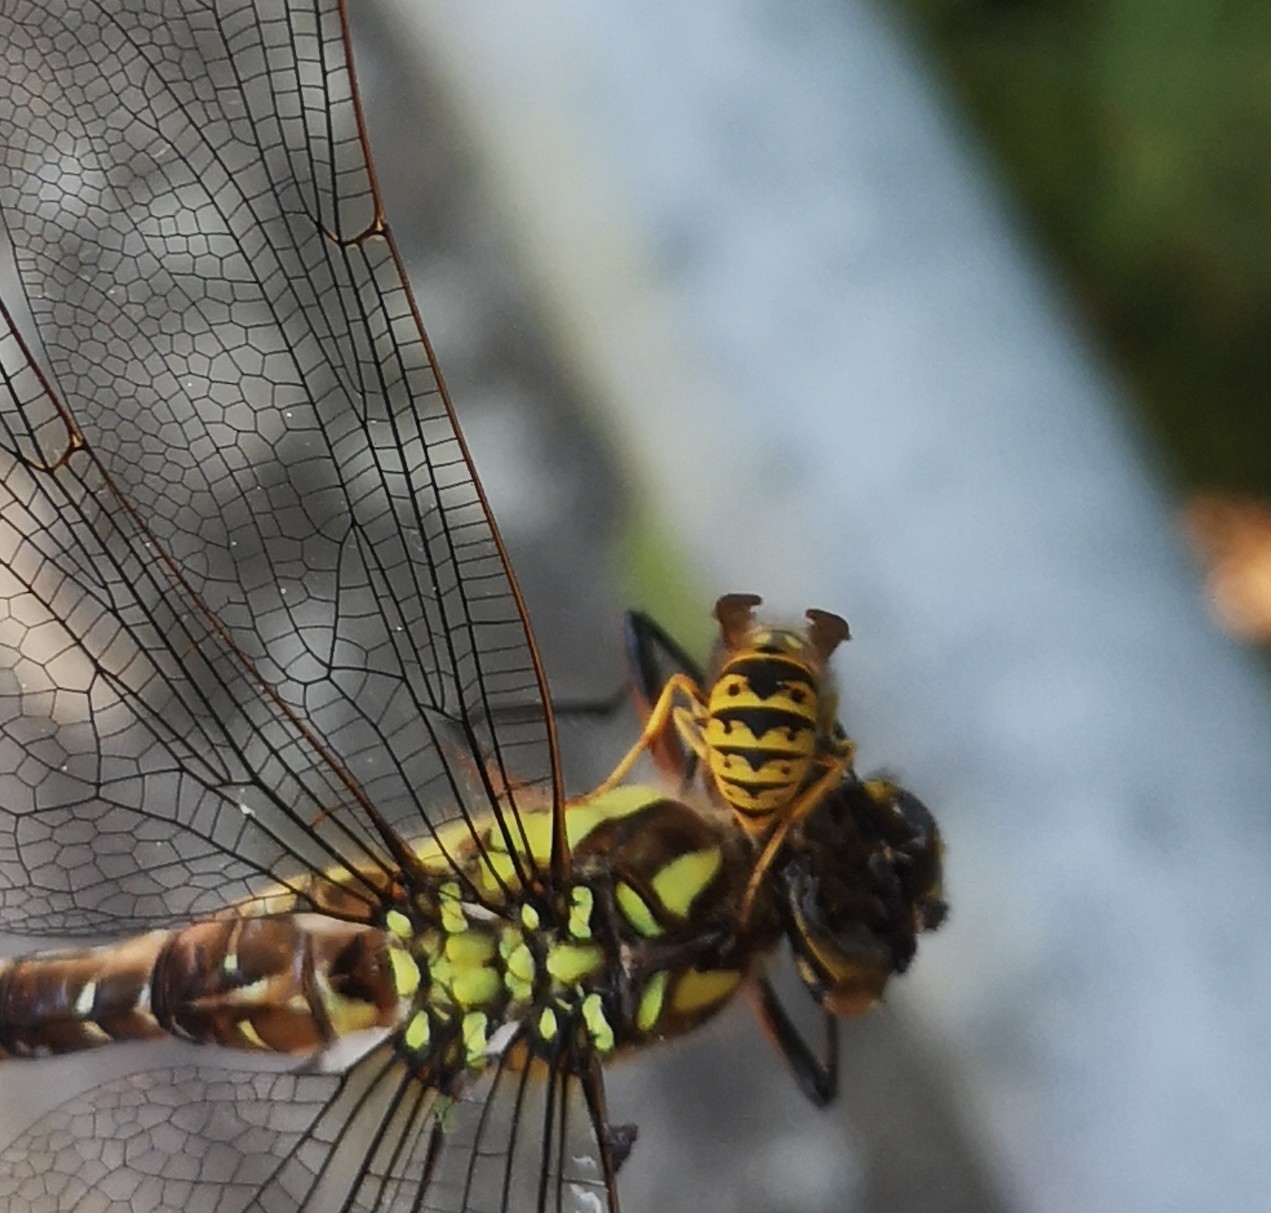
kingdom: Animalia
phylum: Arthropoda
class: Insecta
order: Hymenoptera
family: Vespidae
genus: Vespula
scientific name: Vespula germanica
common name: German wasp
